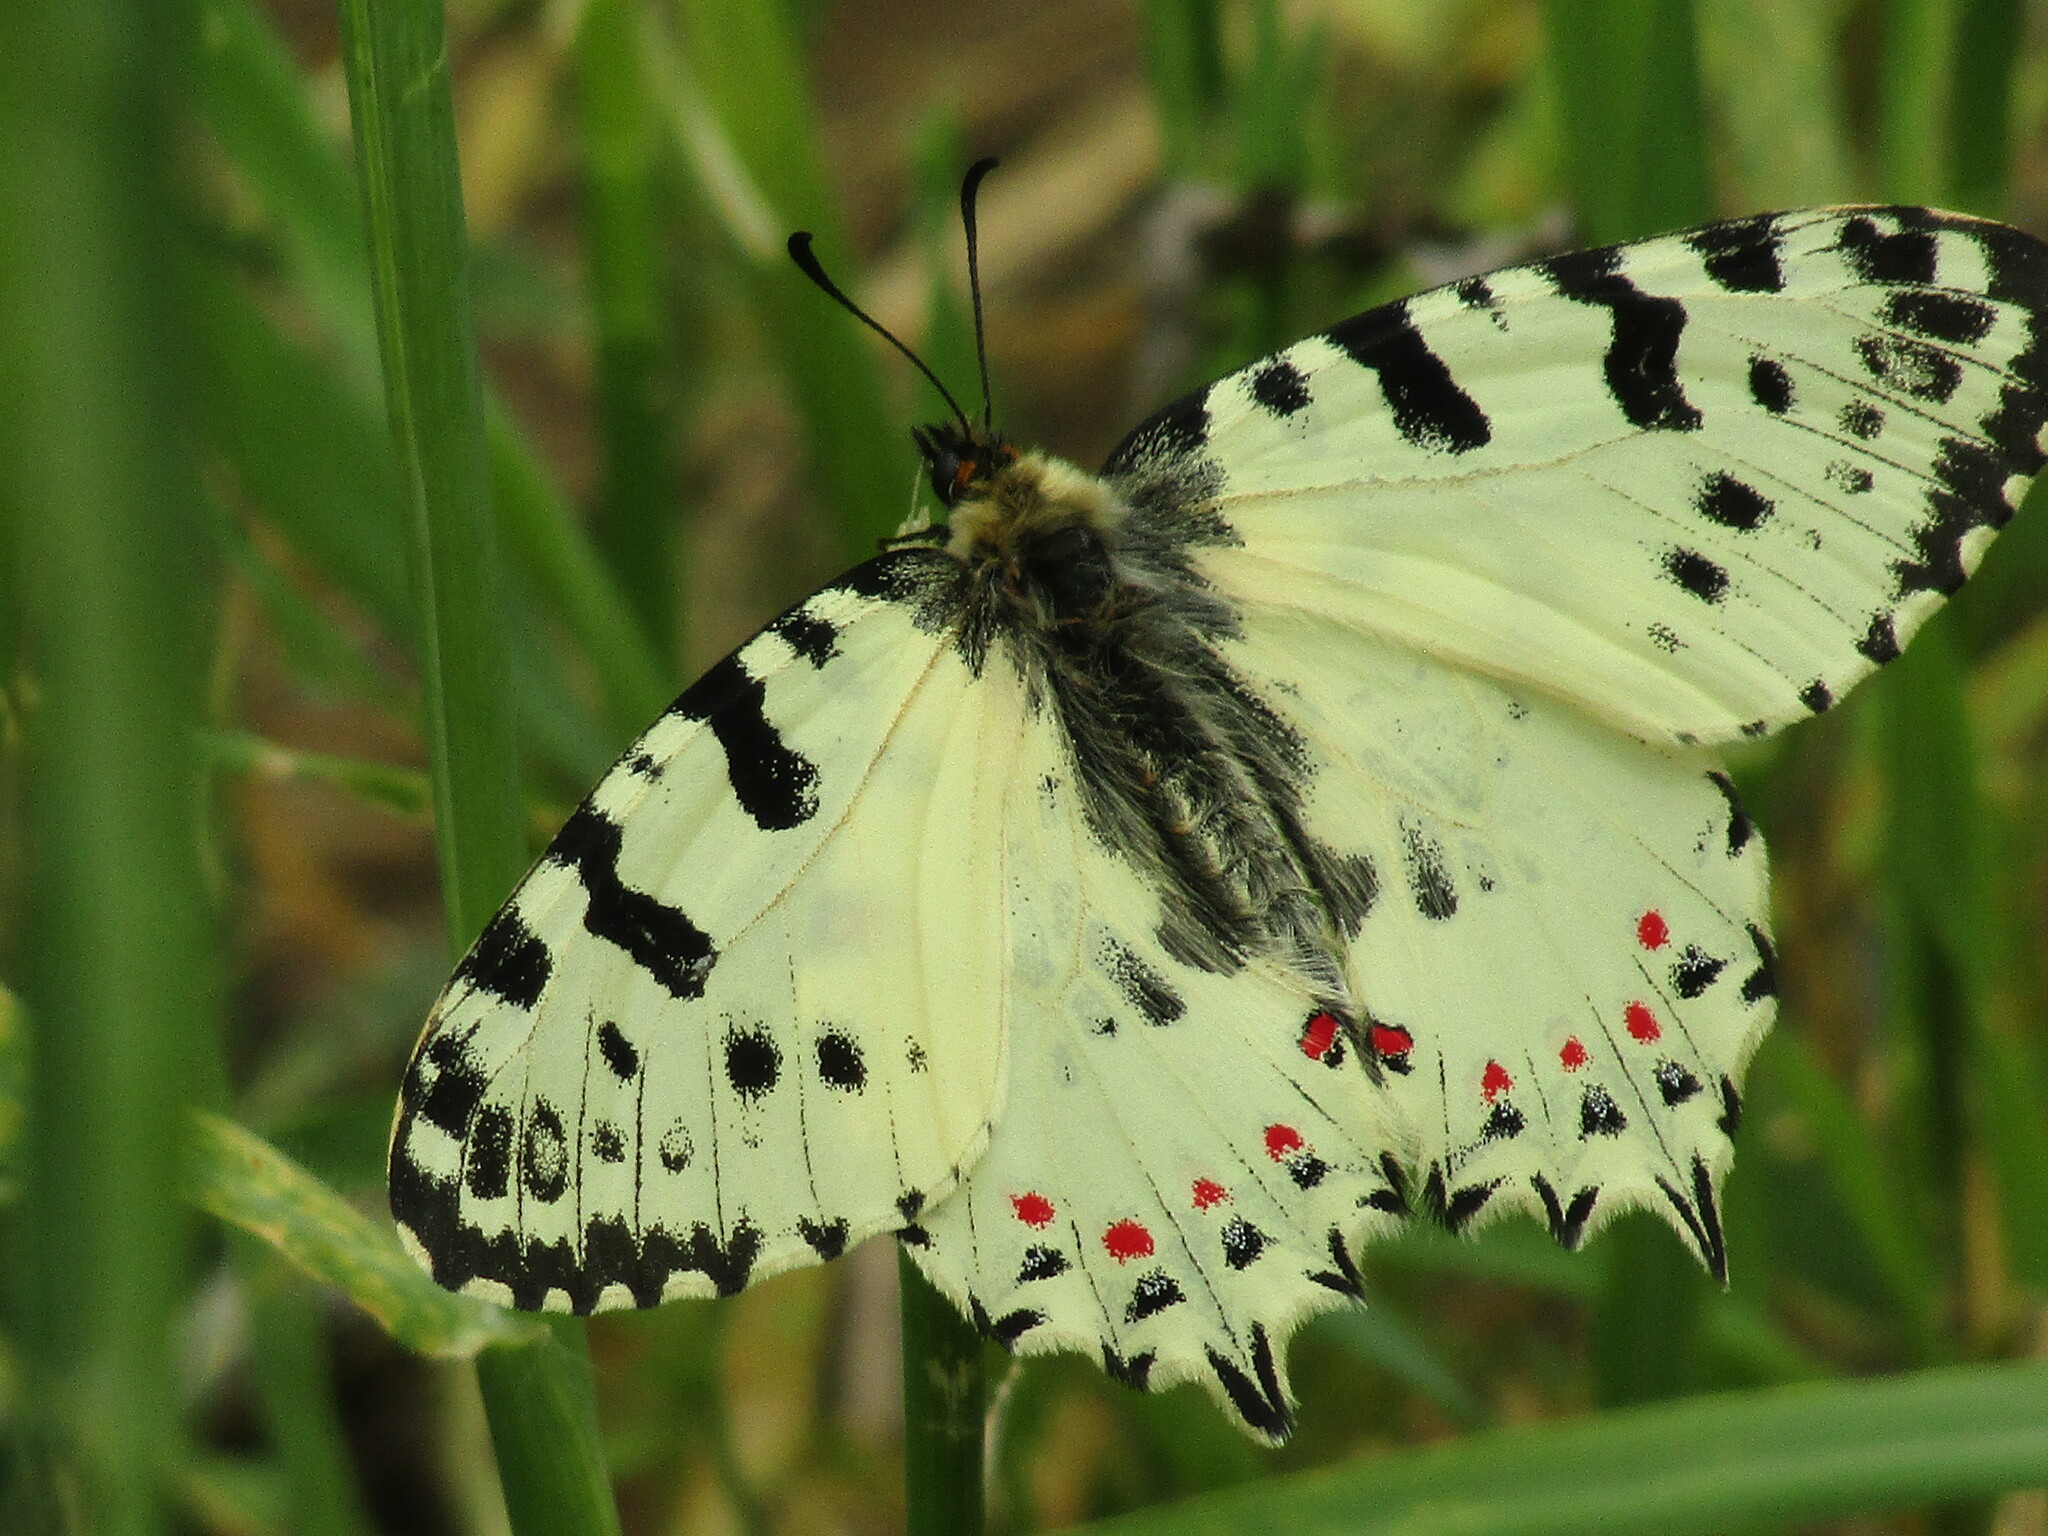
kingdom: Animalia
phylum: Arthropoda
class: Insecta
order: Lepidoptera
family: Papilionidae
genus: Zerynthia
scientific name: Zerynthia cerisy
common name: Eastern festoon
